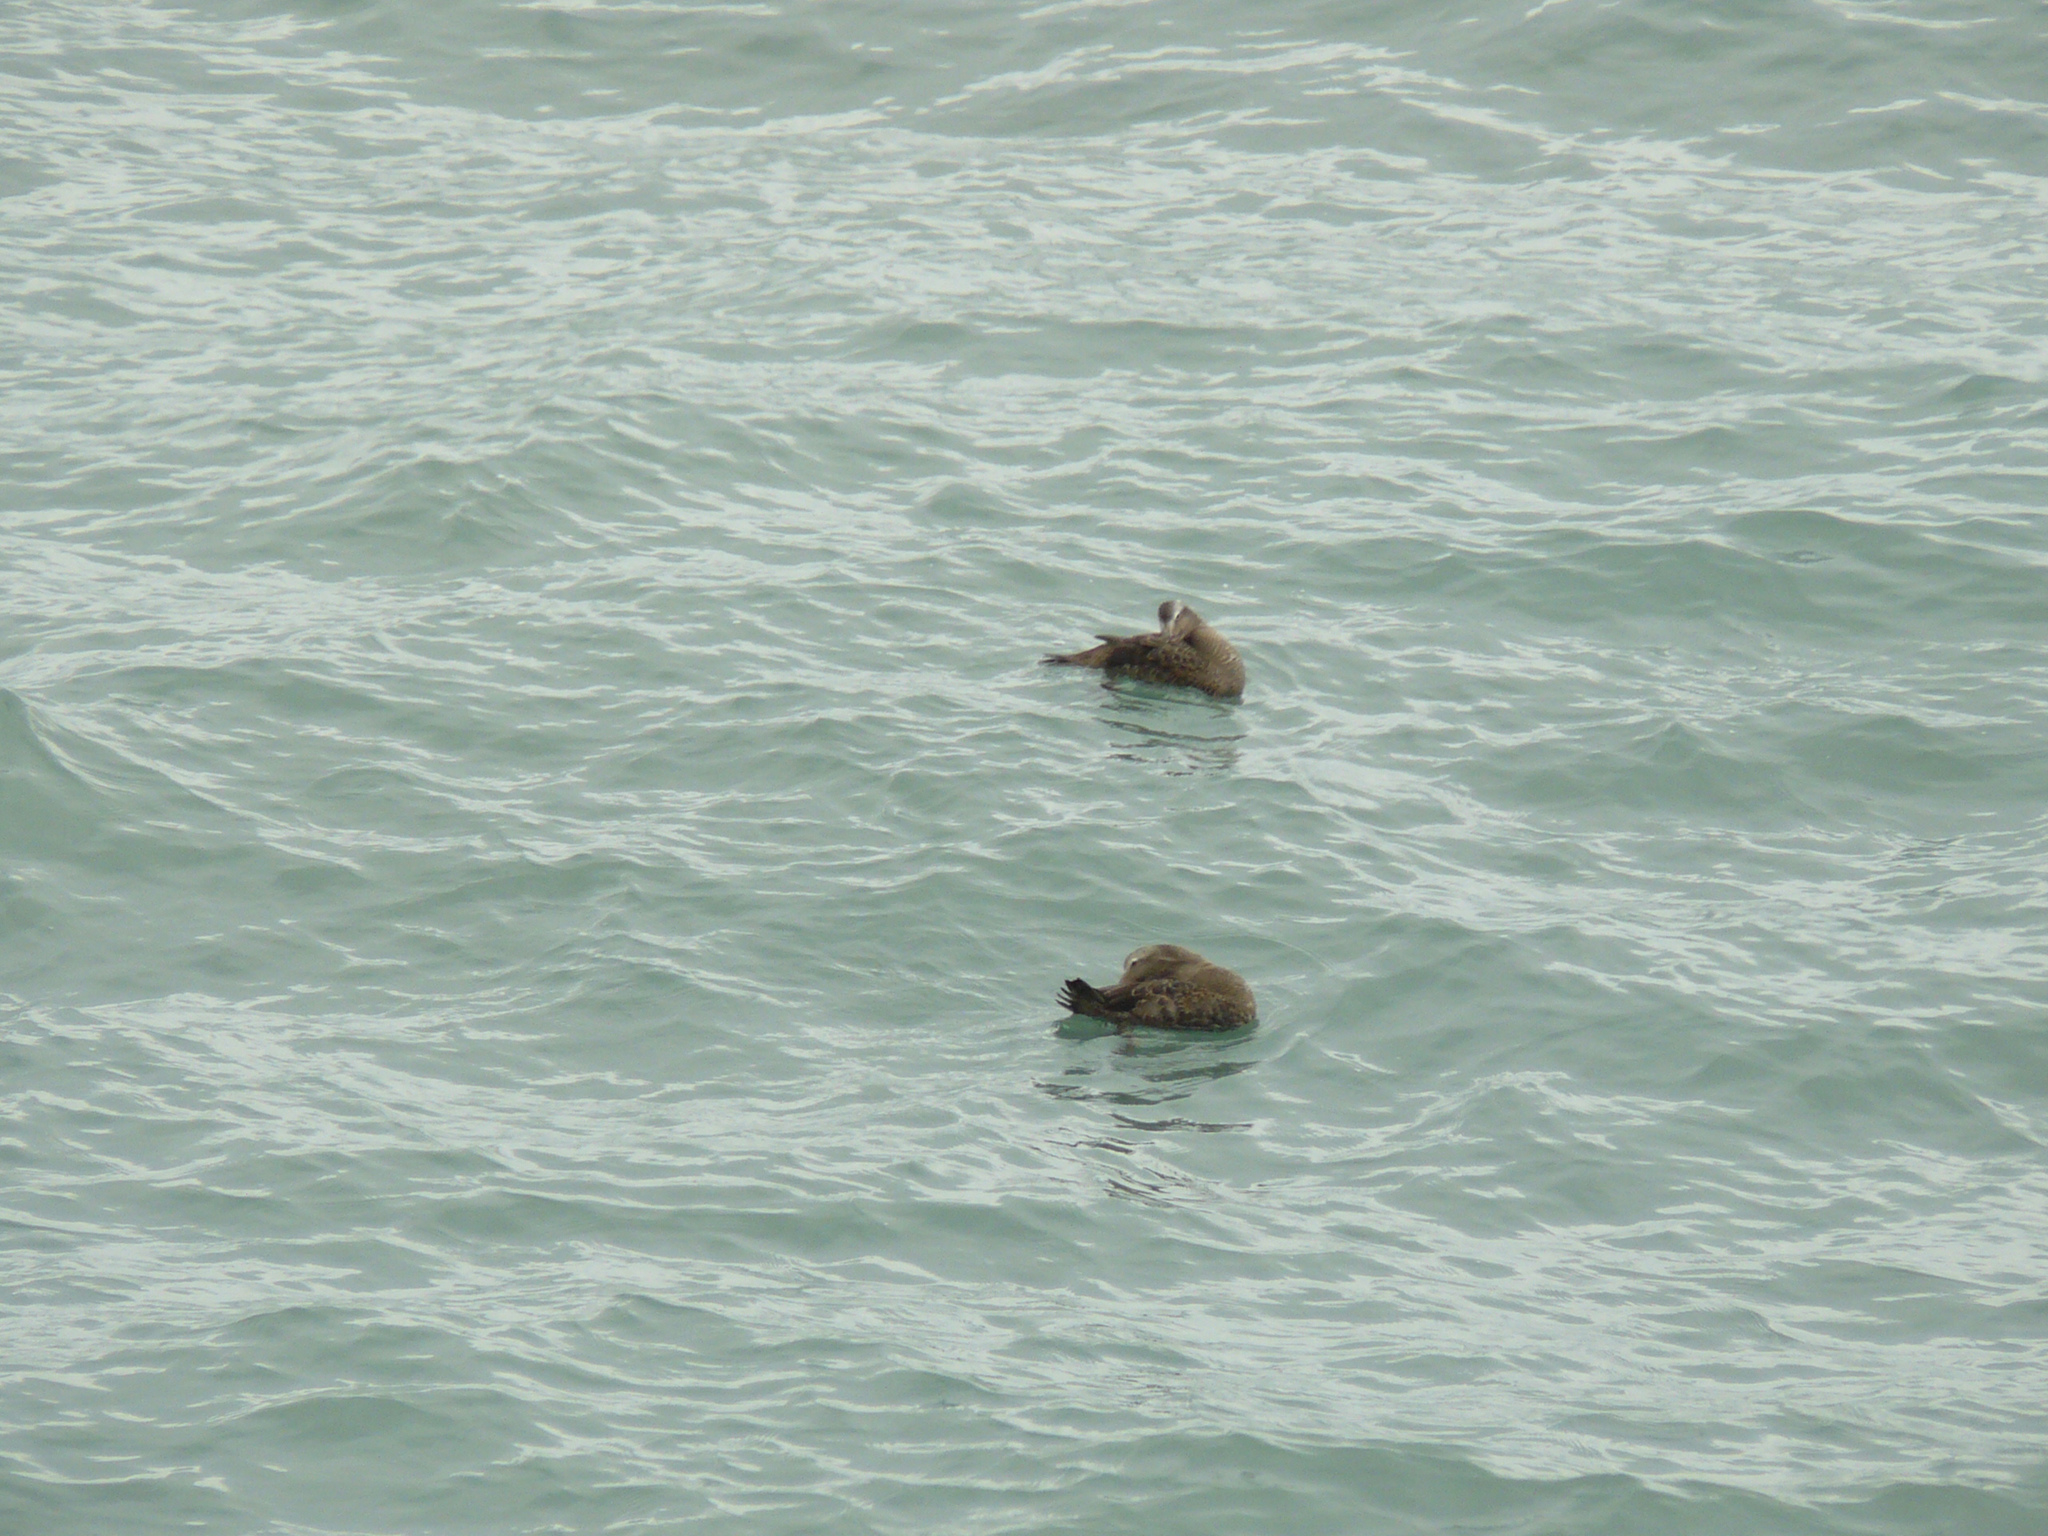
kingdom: Animalia
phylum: Chordata
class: Aves
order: Anseriformes
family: Anatidae
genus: Somateria
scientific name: Somateria mollissima
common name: Common eider
